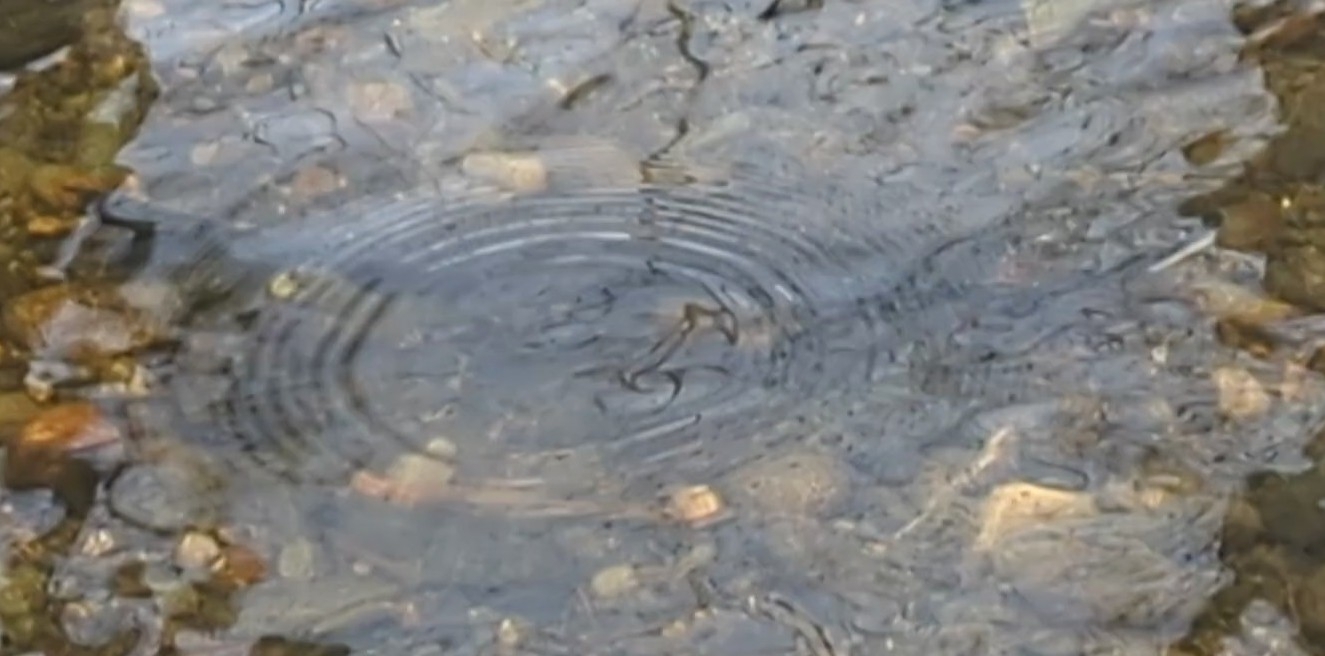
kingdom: Animalia
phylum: Chordata
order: Salmoniformes
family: Salmonidae
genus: Oncorhynchus
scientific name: Oncorhynchus kisutch
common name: Coho salmon
